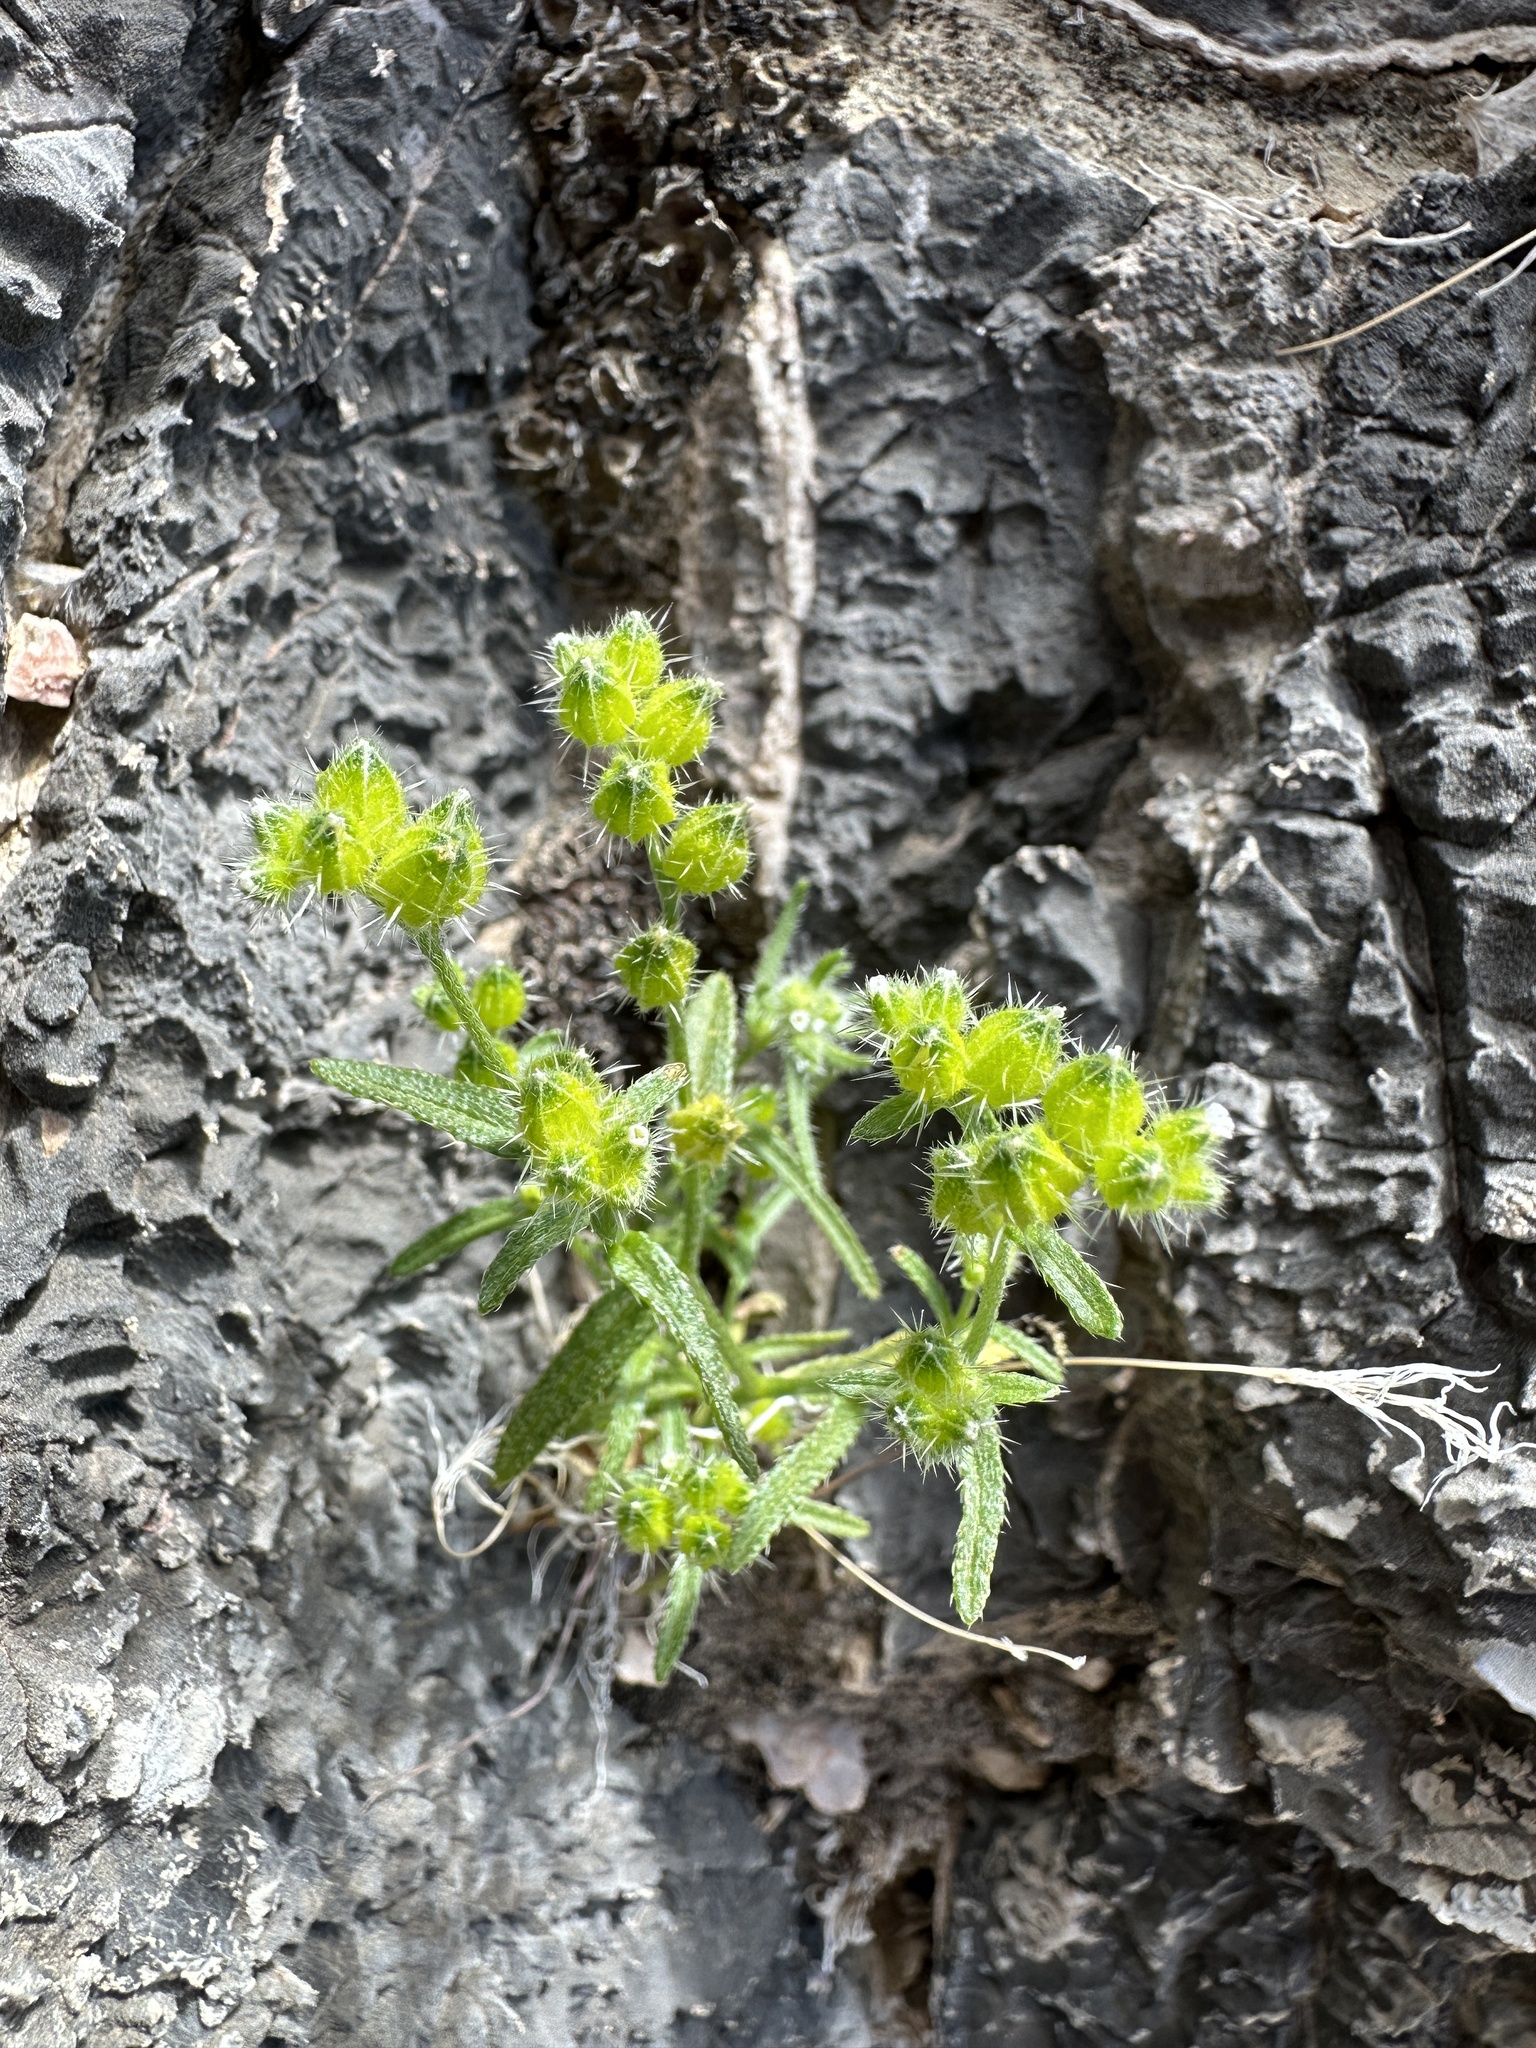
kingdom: Plantae
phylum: Tracheophyta
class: Magnoliopsida
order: Boraginales
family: Boraginaceae
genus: Cryptantha
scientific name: Cryptantha pterocarya
